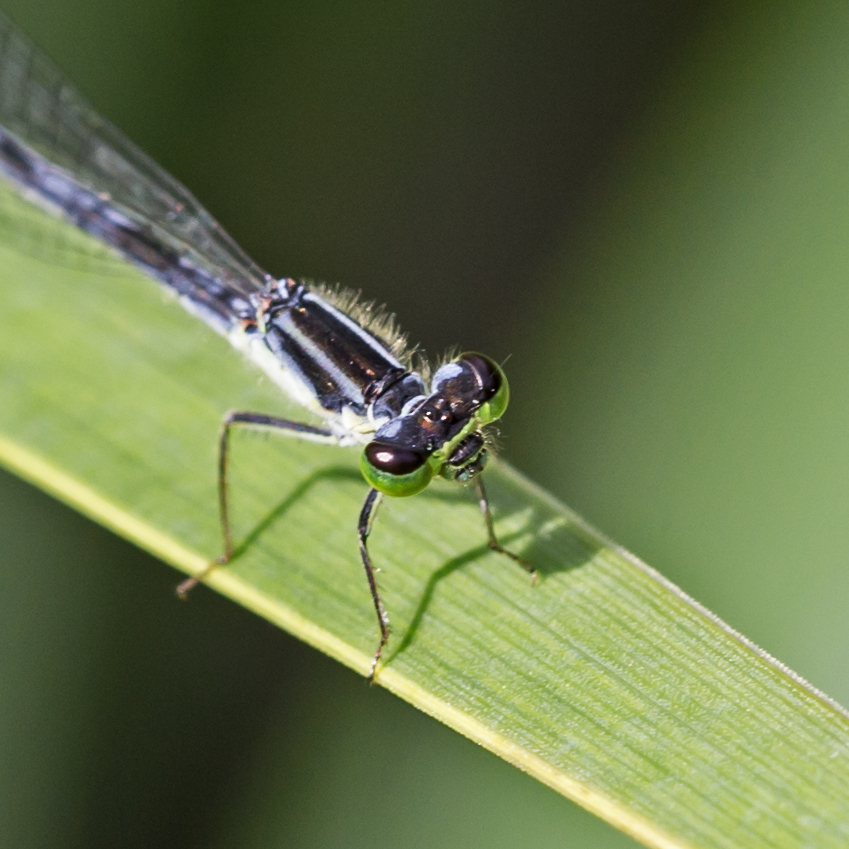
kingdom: Animalia
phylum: Arthropoda
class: Insecta
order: Odonata
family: Coenagrionidae
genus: Ischnura
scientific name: Ischnura verticalis
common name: Eastern forktail
